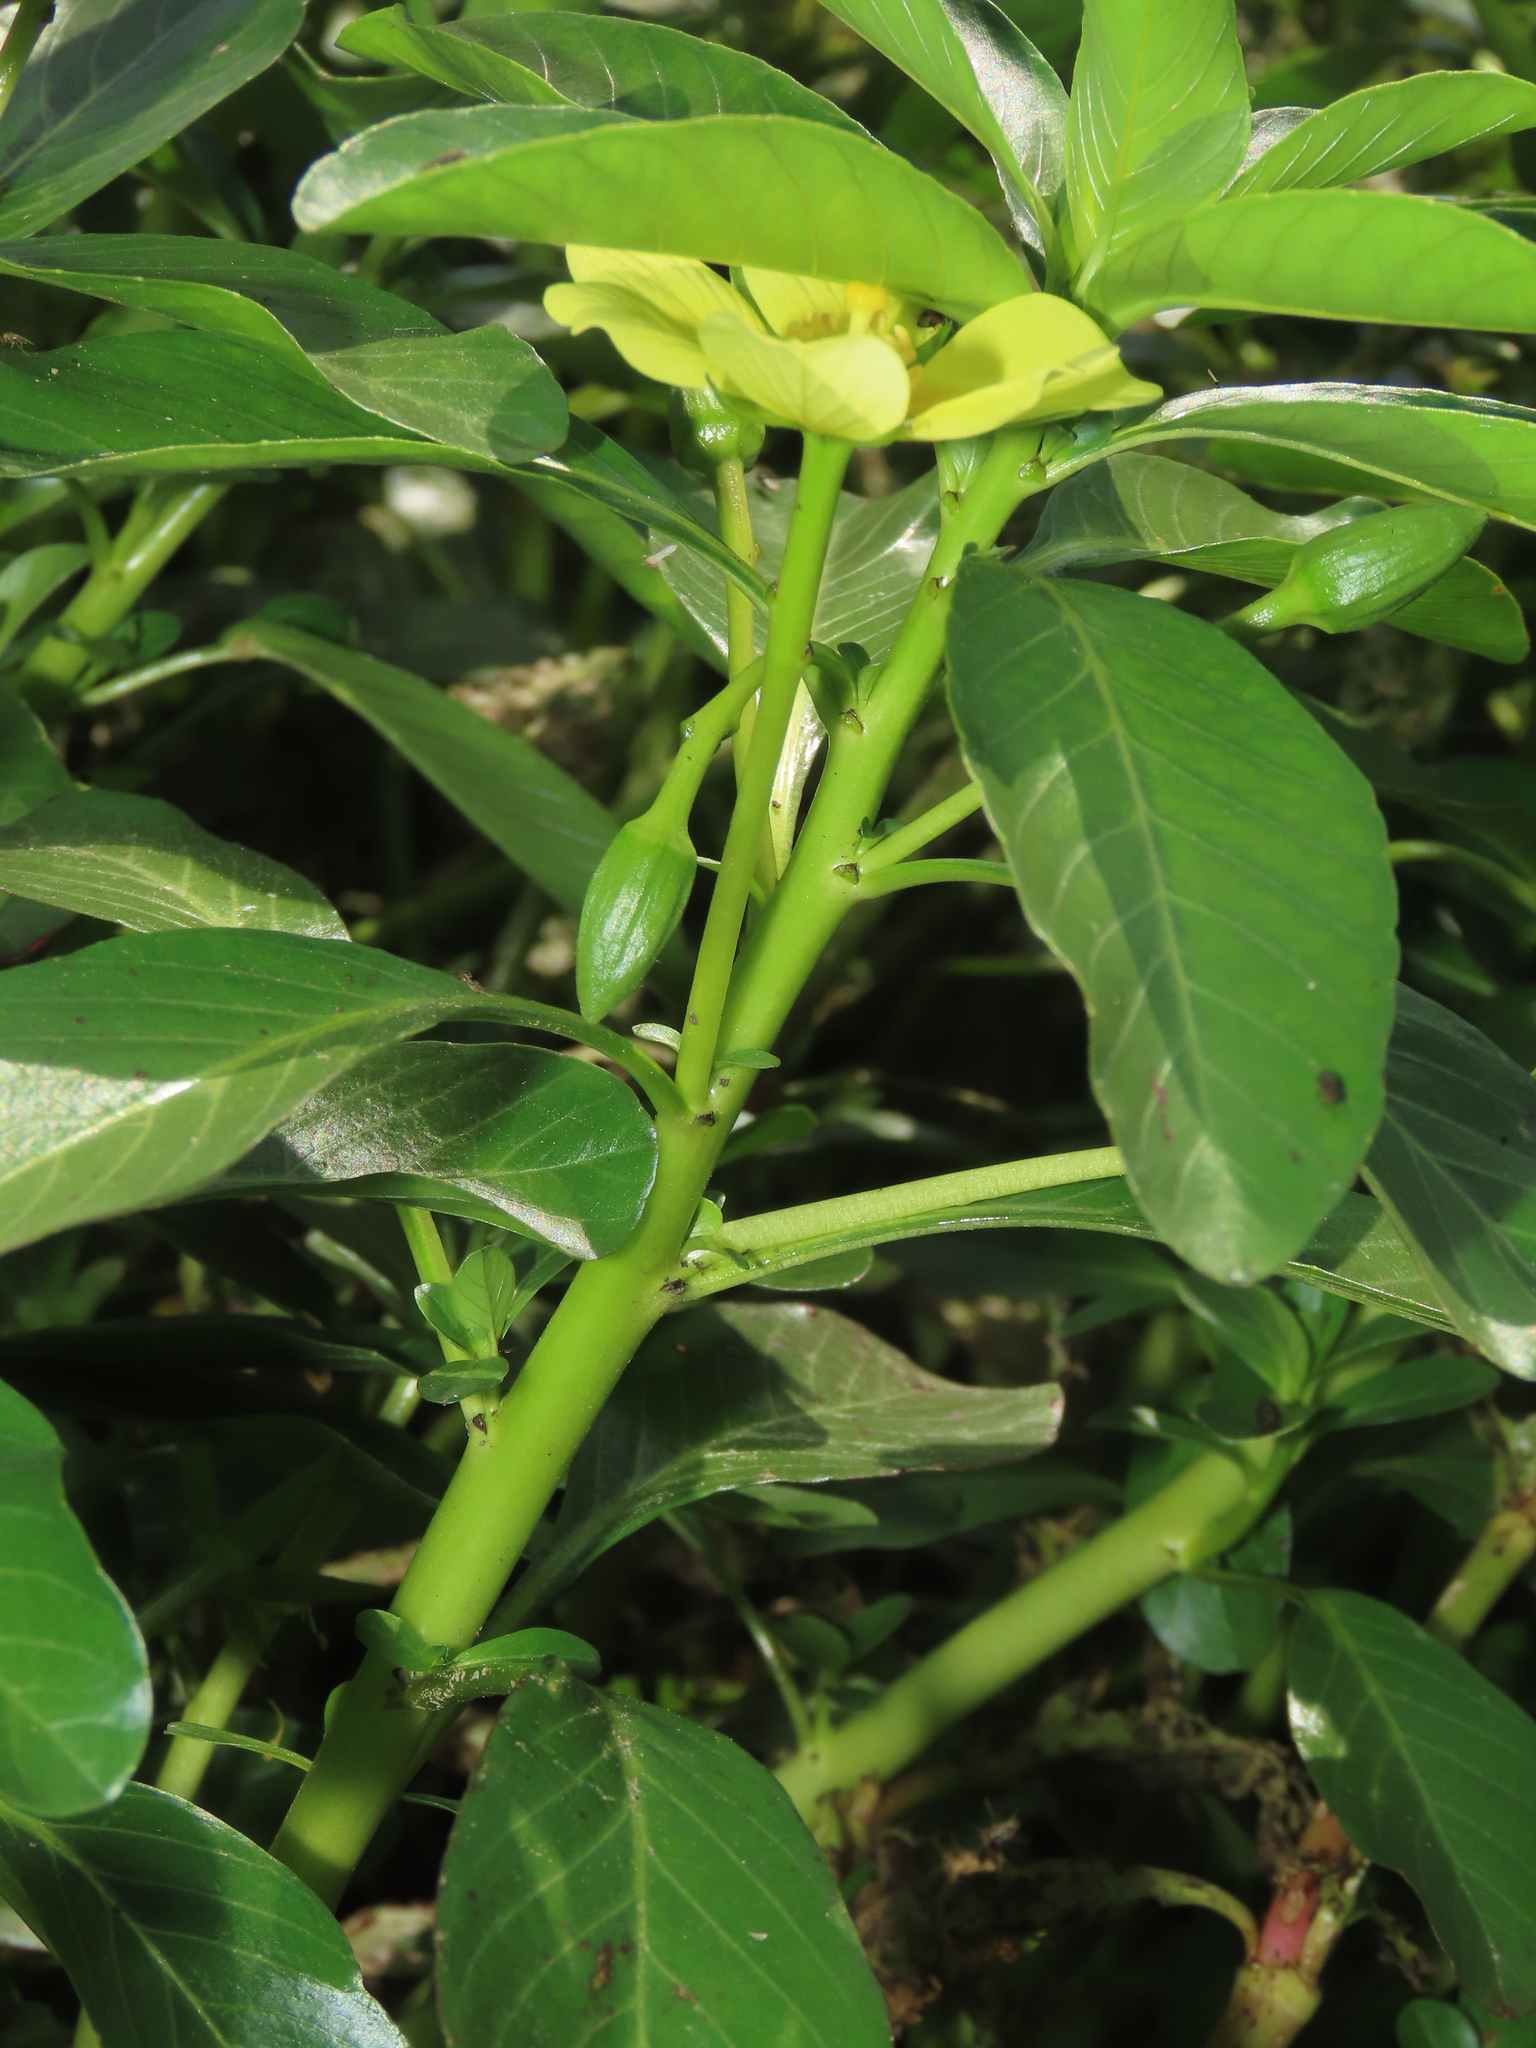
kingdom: Plantae
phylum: Tracheophyta
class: Magnoliopsida
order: Myrtales
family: Onagraceae
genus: Ludwigia
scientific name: Ludwigia taiwanensis
